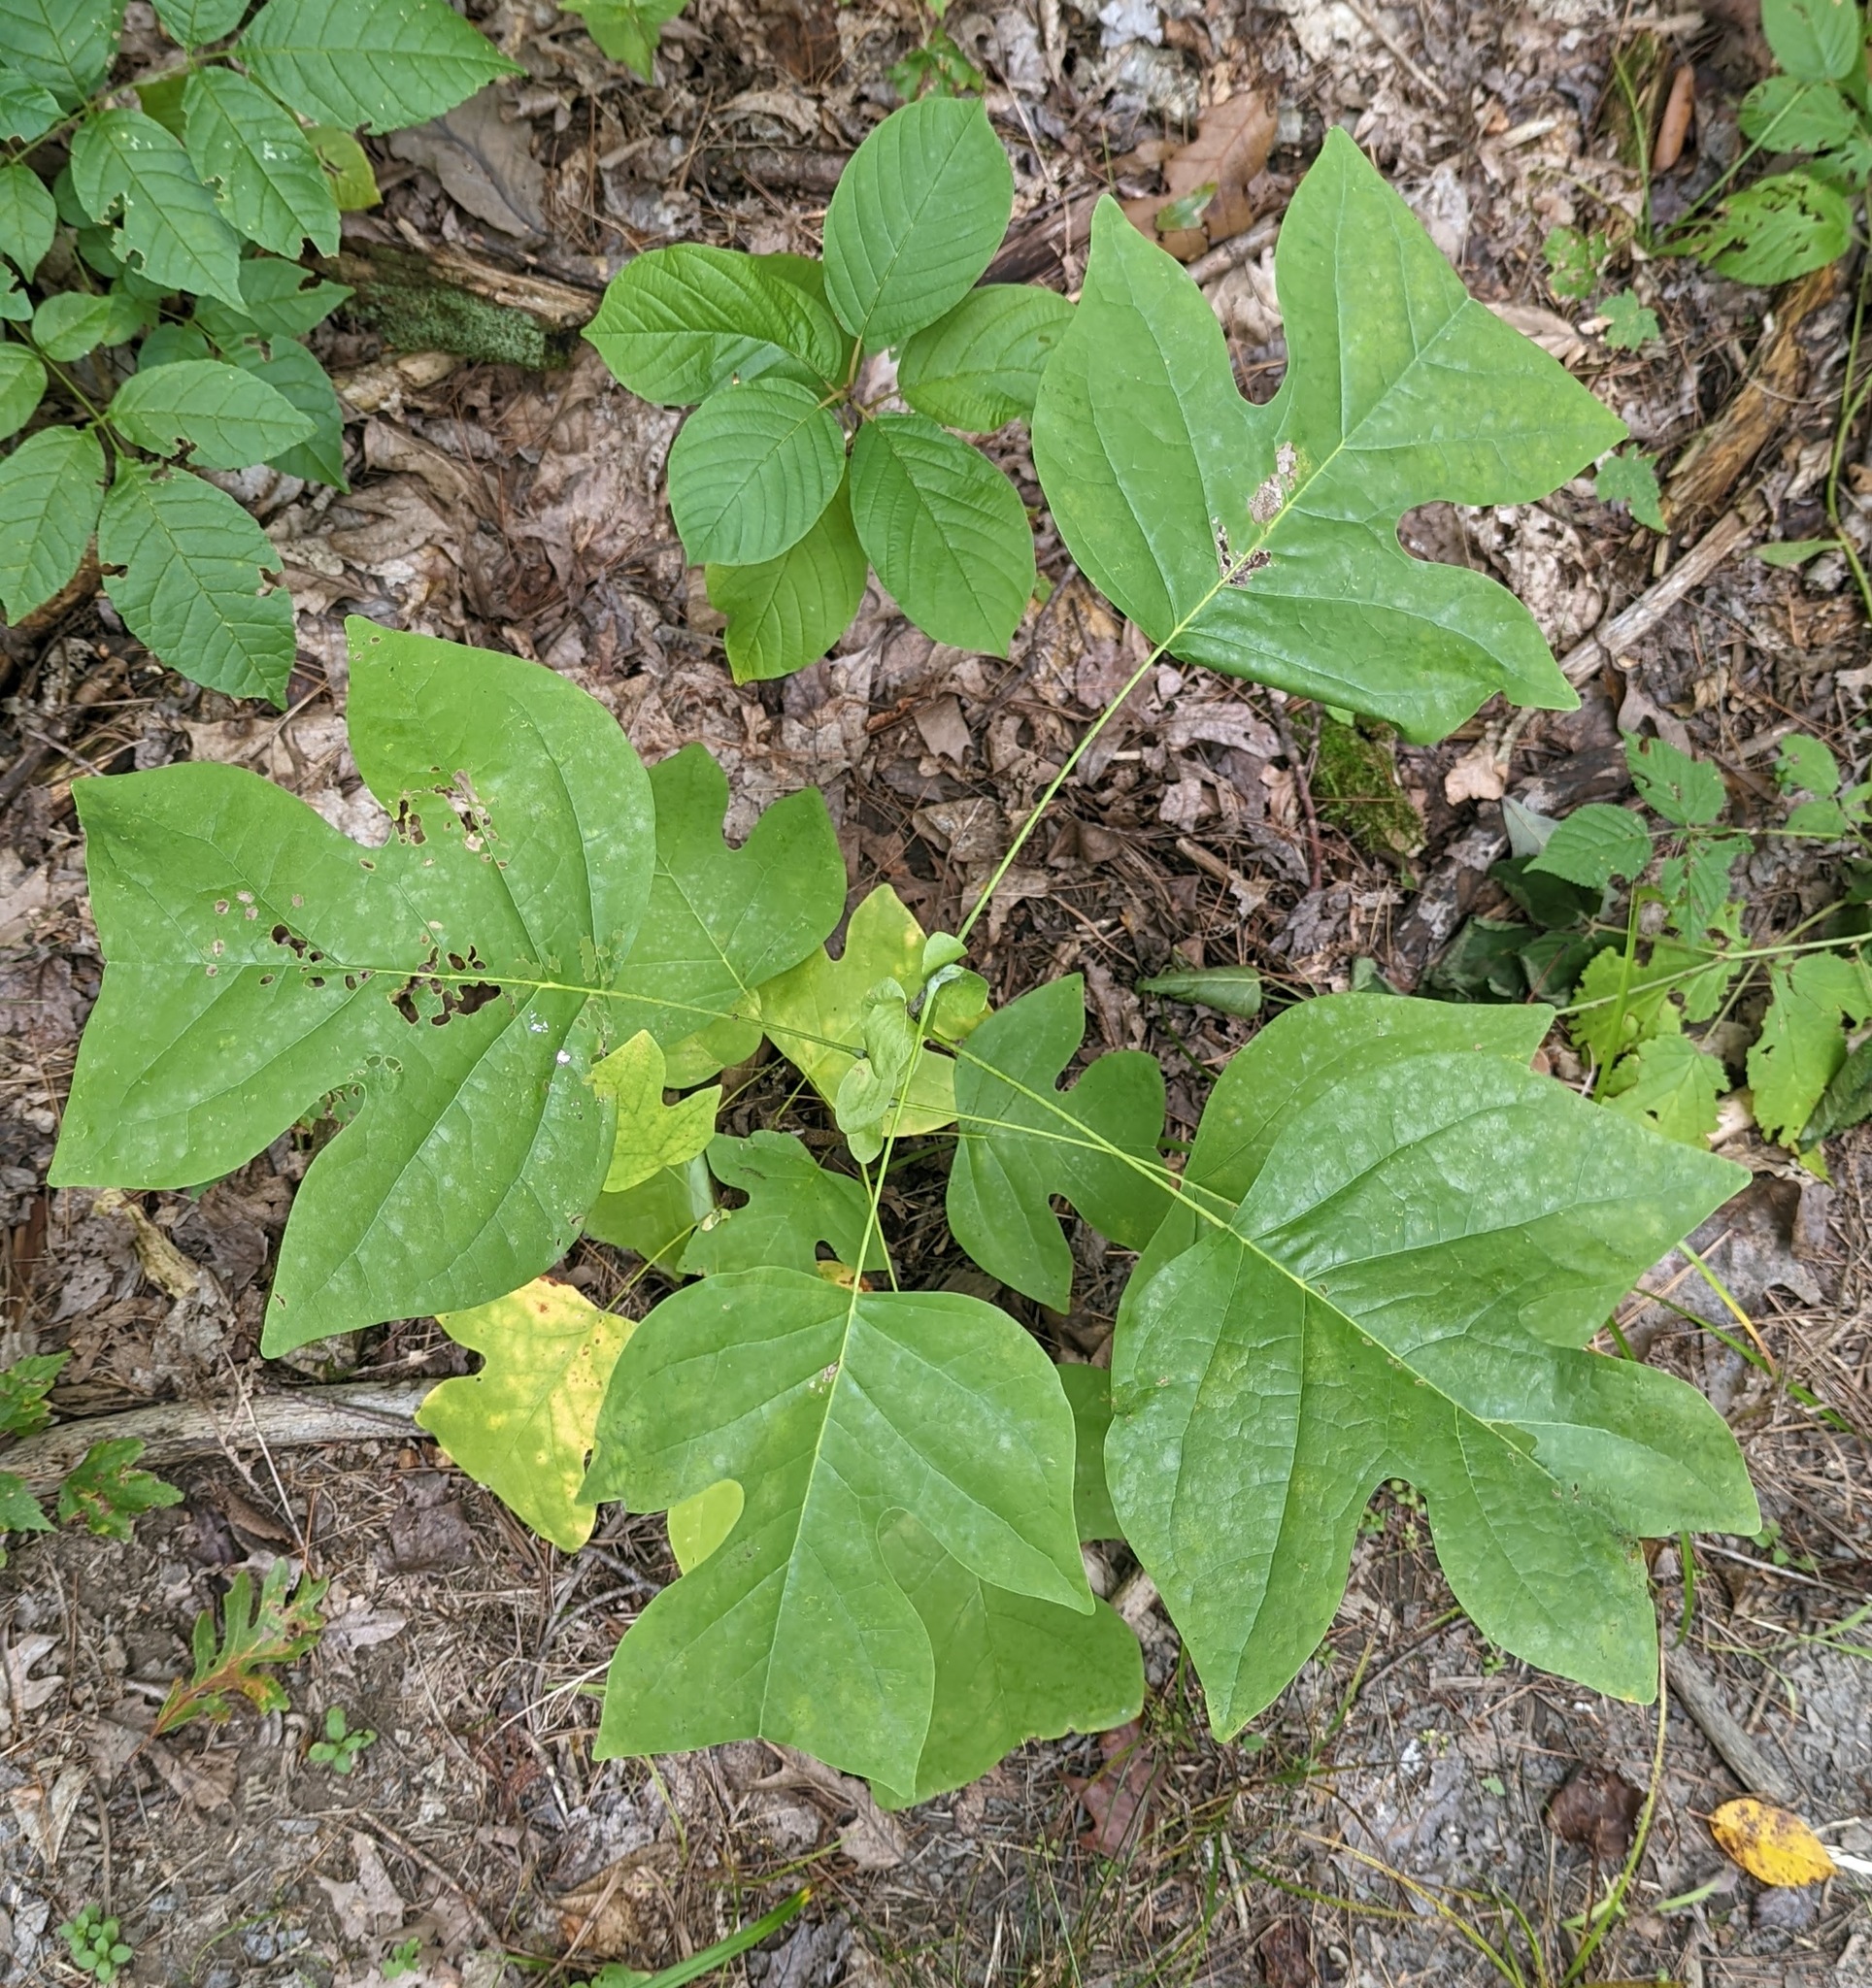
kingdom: Plantae
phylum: Tracheophyta
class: Magnoliopsida
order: Magnoliales
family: Magnoliaceae
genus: Liriodendron
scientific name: Liriodendron tulipifera
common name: Tulip tree
